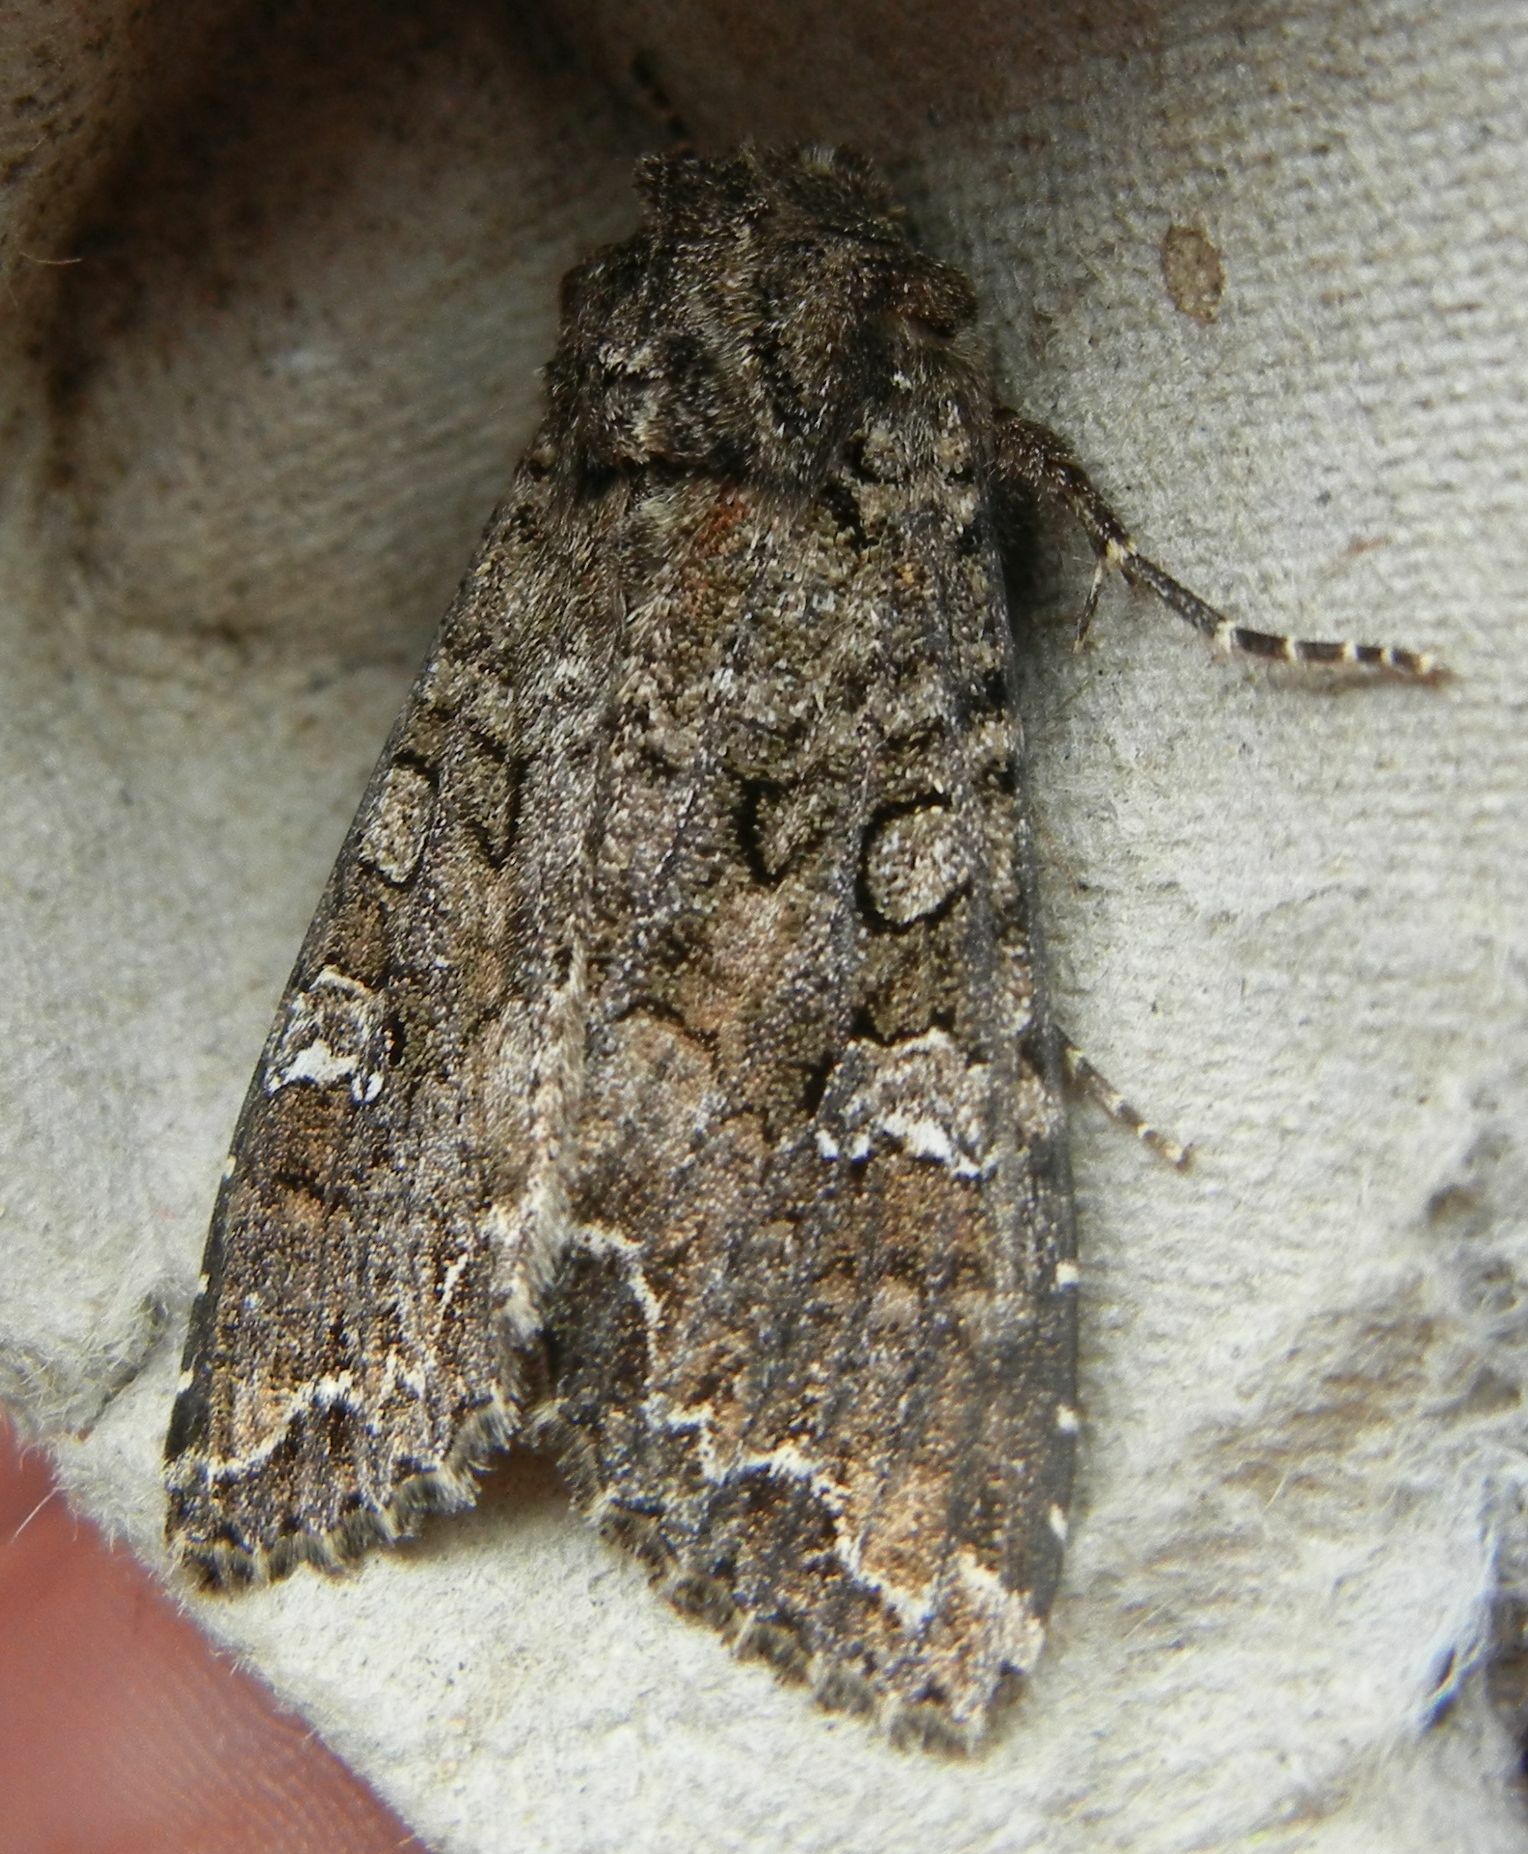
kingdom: Animalia
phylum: Arthropoda
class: Insecta
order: Lepidoptera
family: Noctuidae
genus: Mamestra
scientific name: Mamestra brassicae
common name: Cabbage moth
